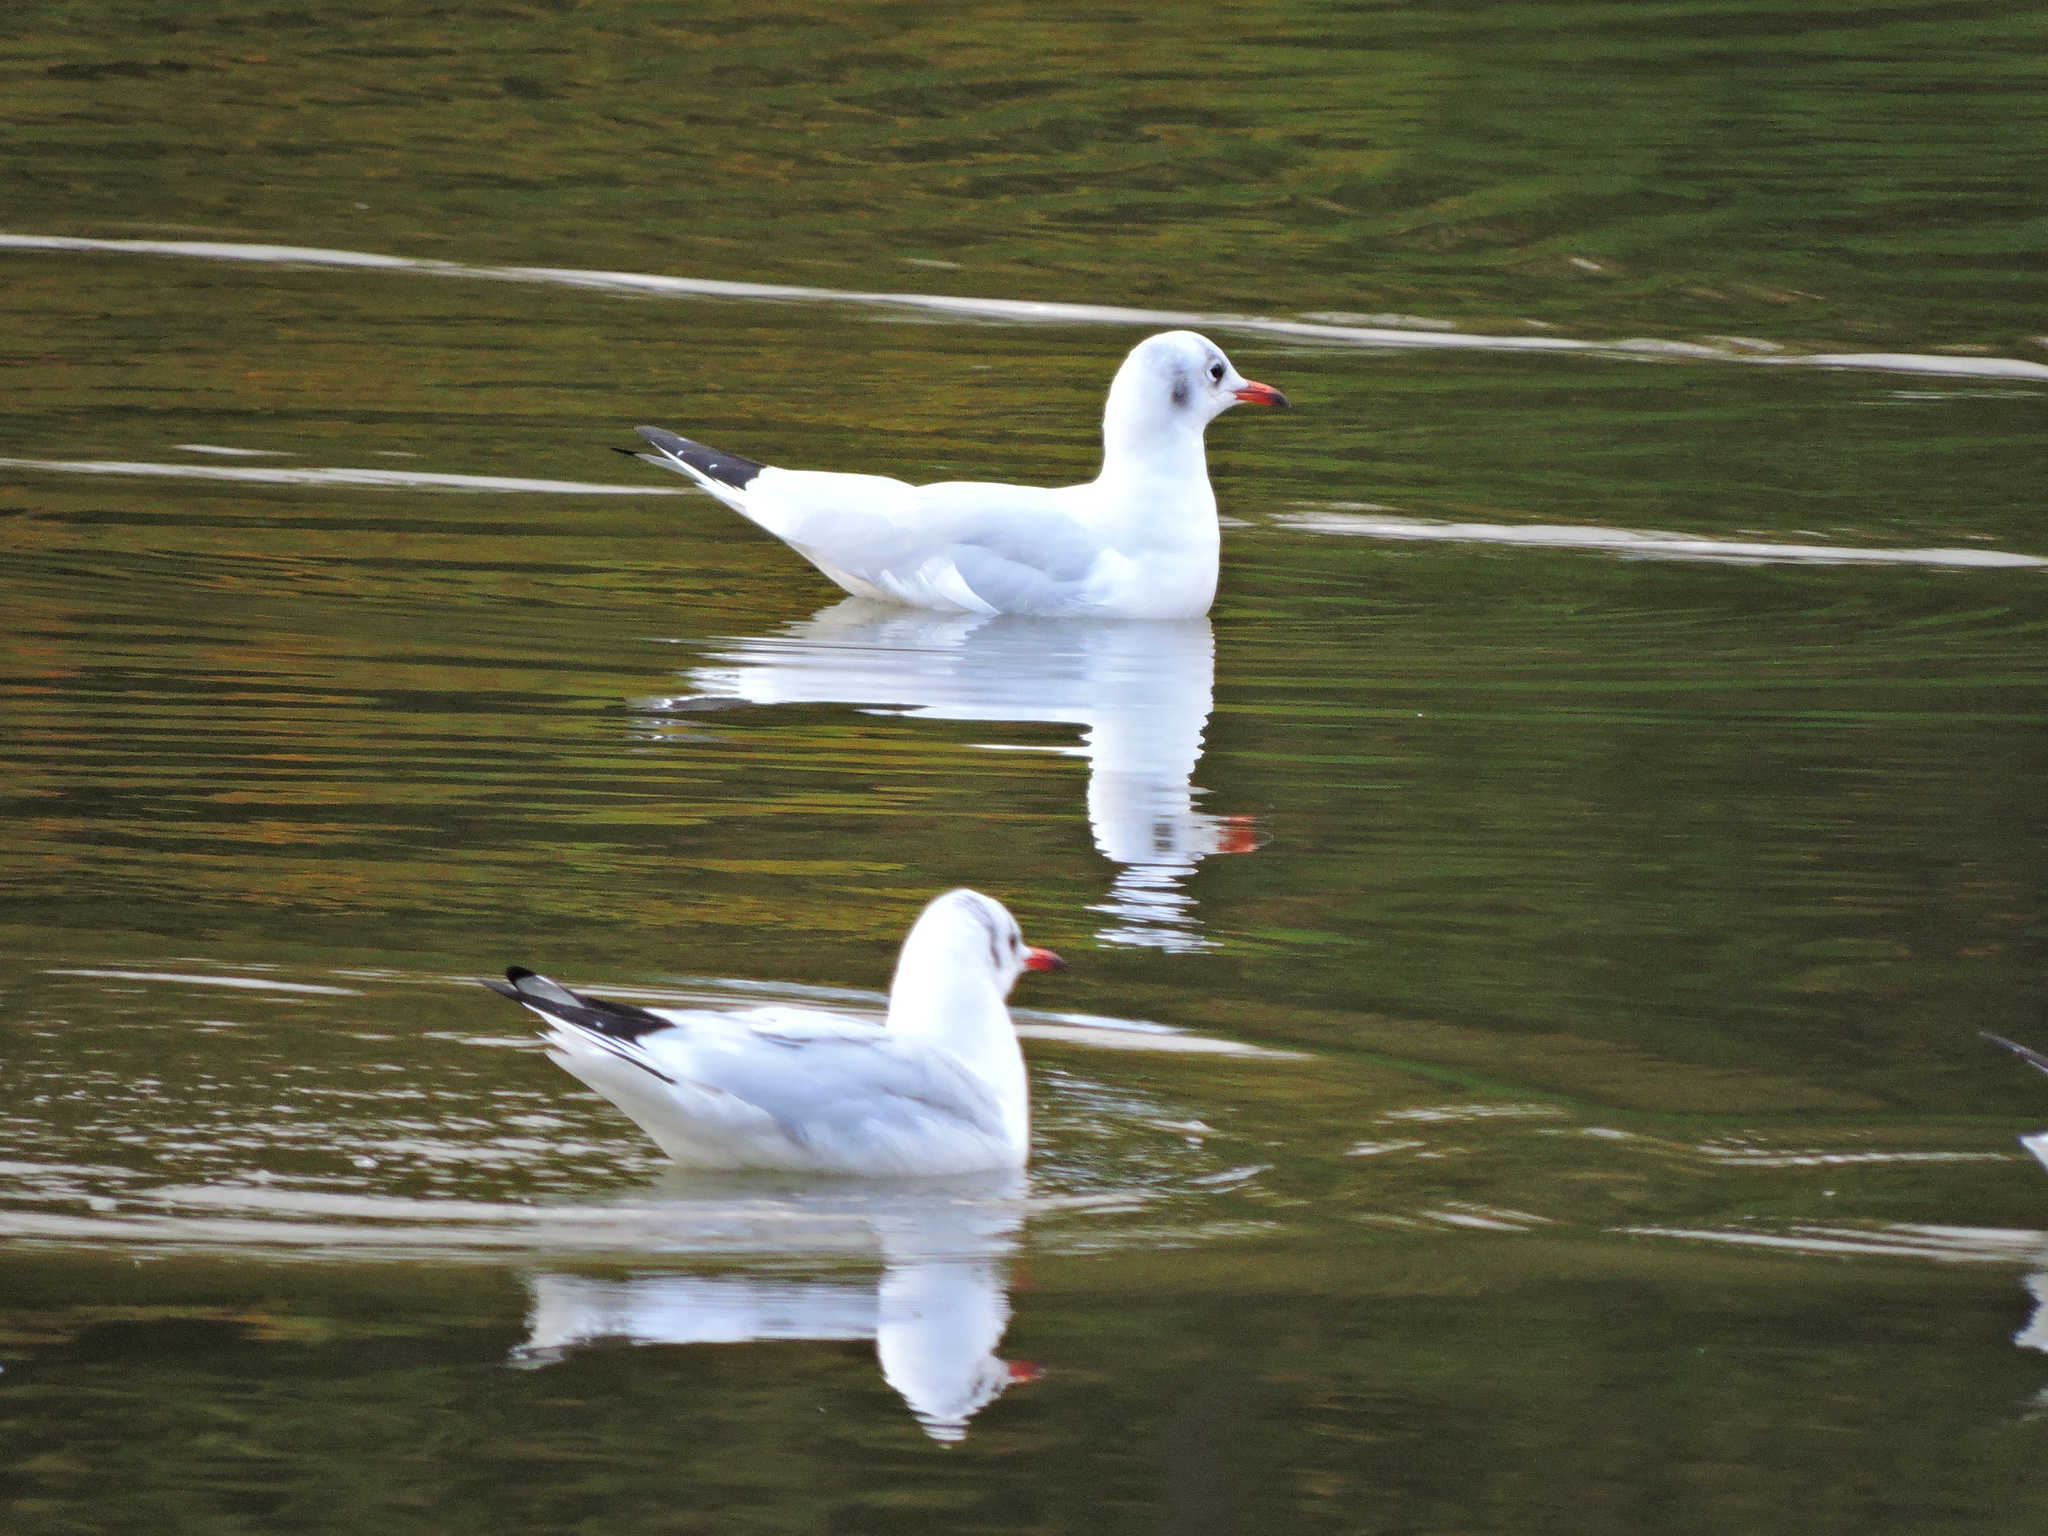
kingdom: Animalia
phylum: Chordata
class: Aves
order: Charadriiformes
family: Laridae
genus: Chroicocephalus
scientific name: Chroicocephalus ridibundus
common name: Black-headed gull
